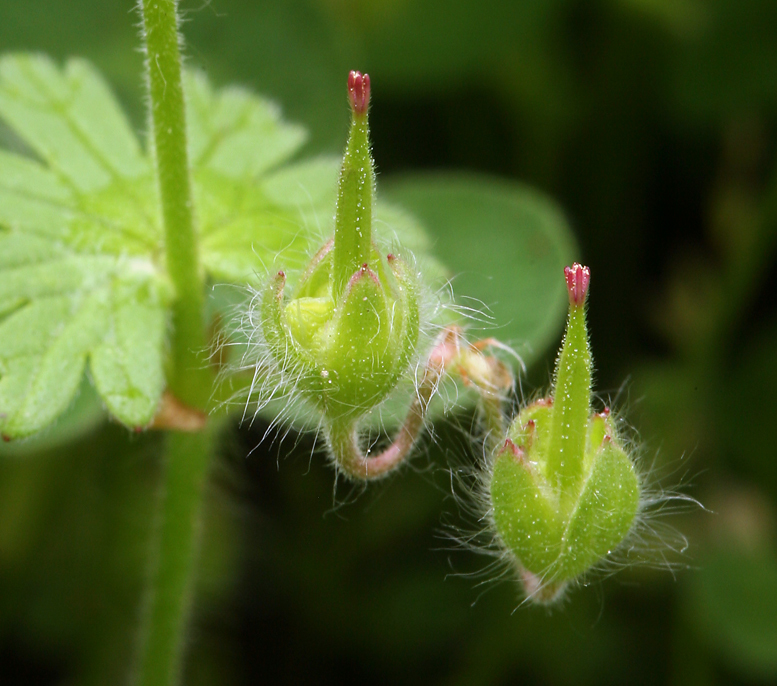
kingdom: Plantae
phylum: Tracheophyta
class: Magnoliopsida
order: Geraniales
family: Geraniaceae
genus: Geranium
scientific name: Geranium molle
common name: Dove's-foot crane's-bill
